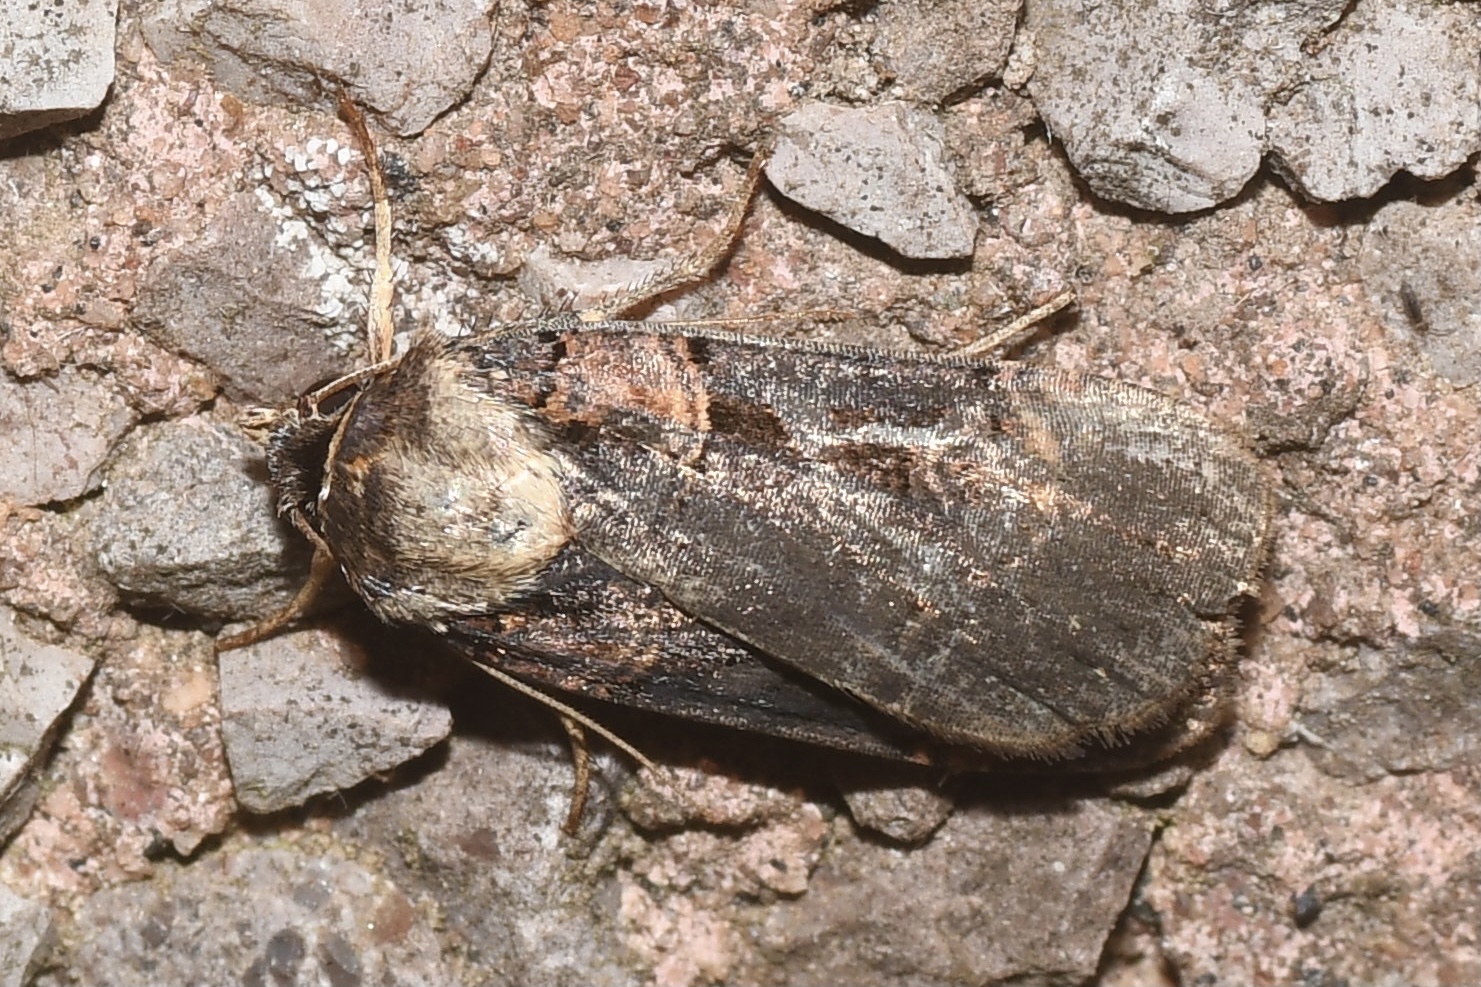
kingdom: Animalia
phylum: Arthropoda
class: Insecta
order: Lepidoptera
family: Noctuidae
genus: Pseudohermonassa
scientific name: Pseudohermonassa bicarnea
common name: Pink spotted dart
